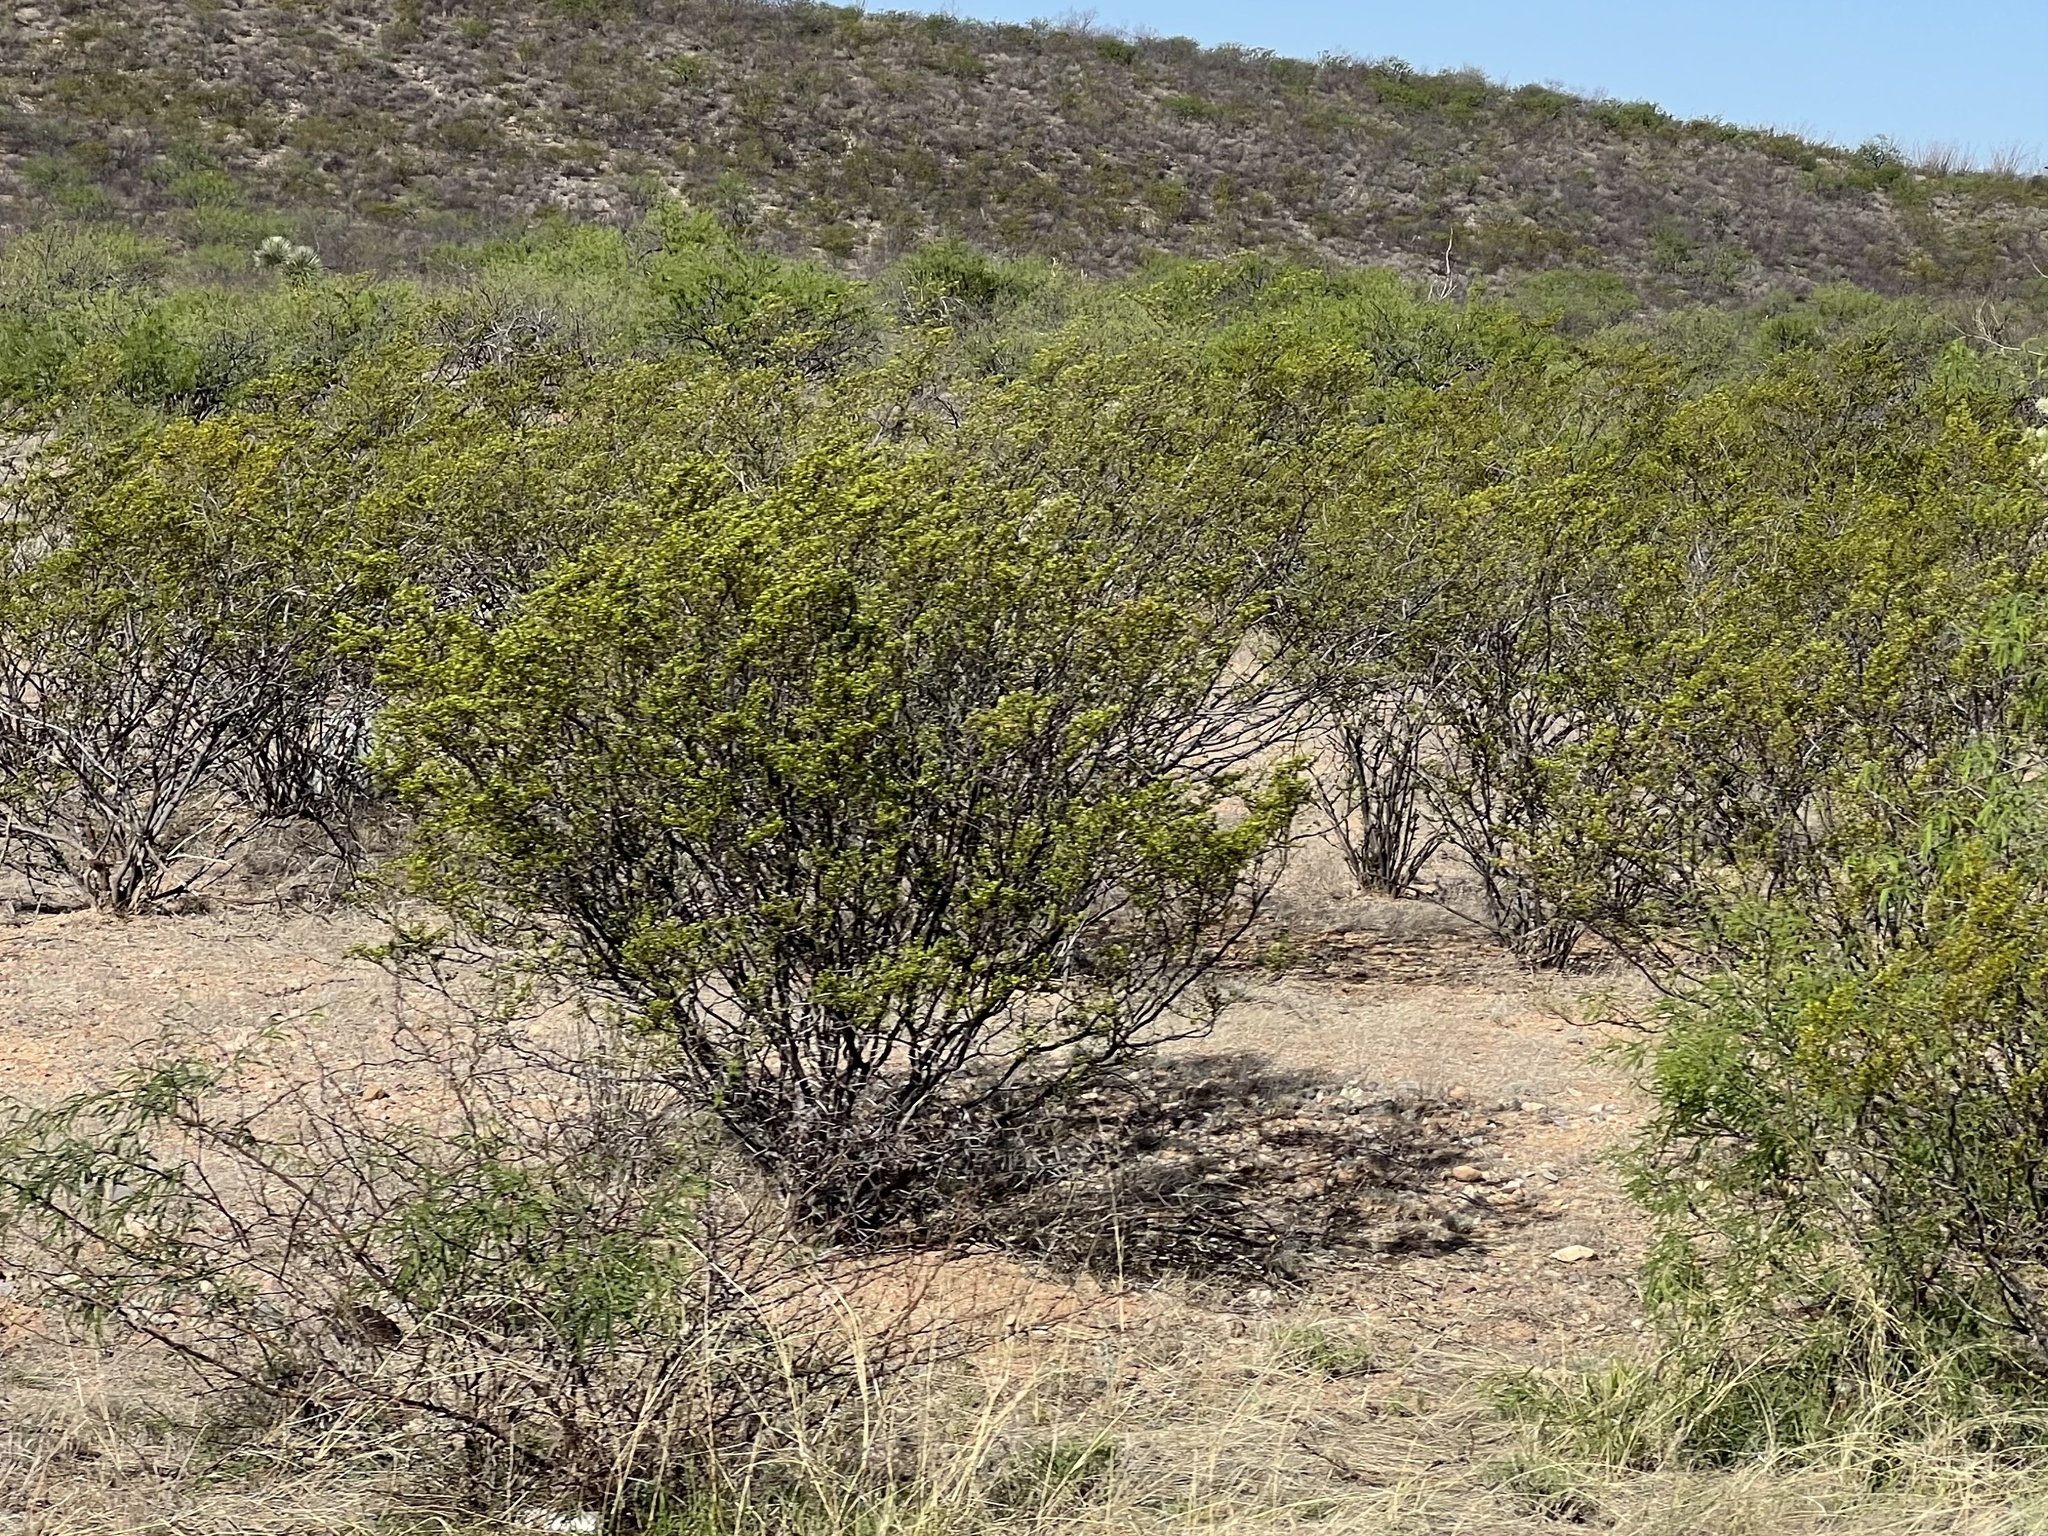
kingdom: Plantae
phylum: Tracheophyta
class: Magnoliopsida
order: Zygophyllales
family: Zygophyllaceae
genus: Larrea
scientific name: Larrea tridentata
